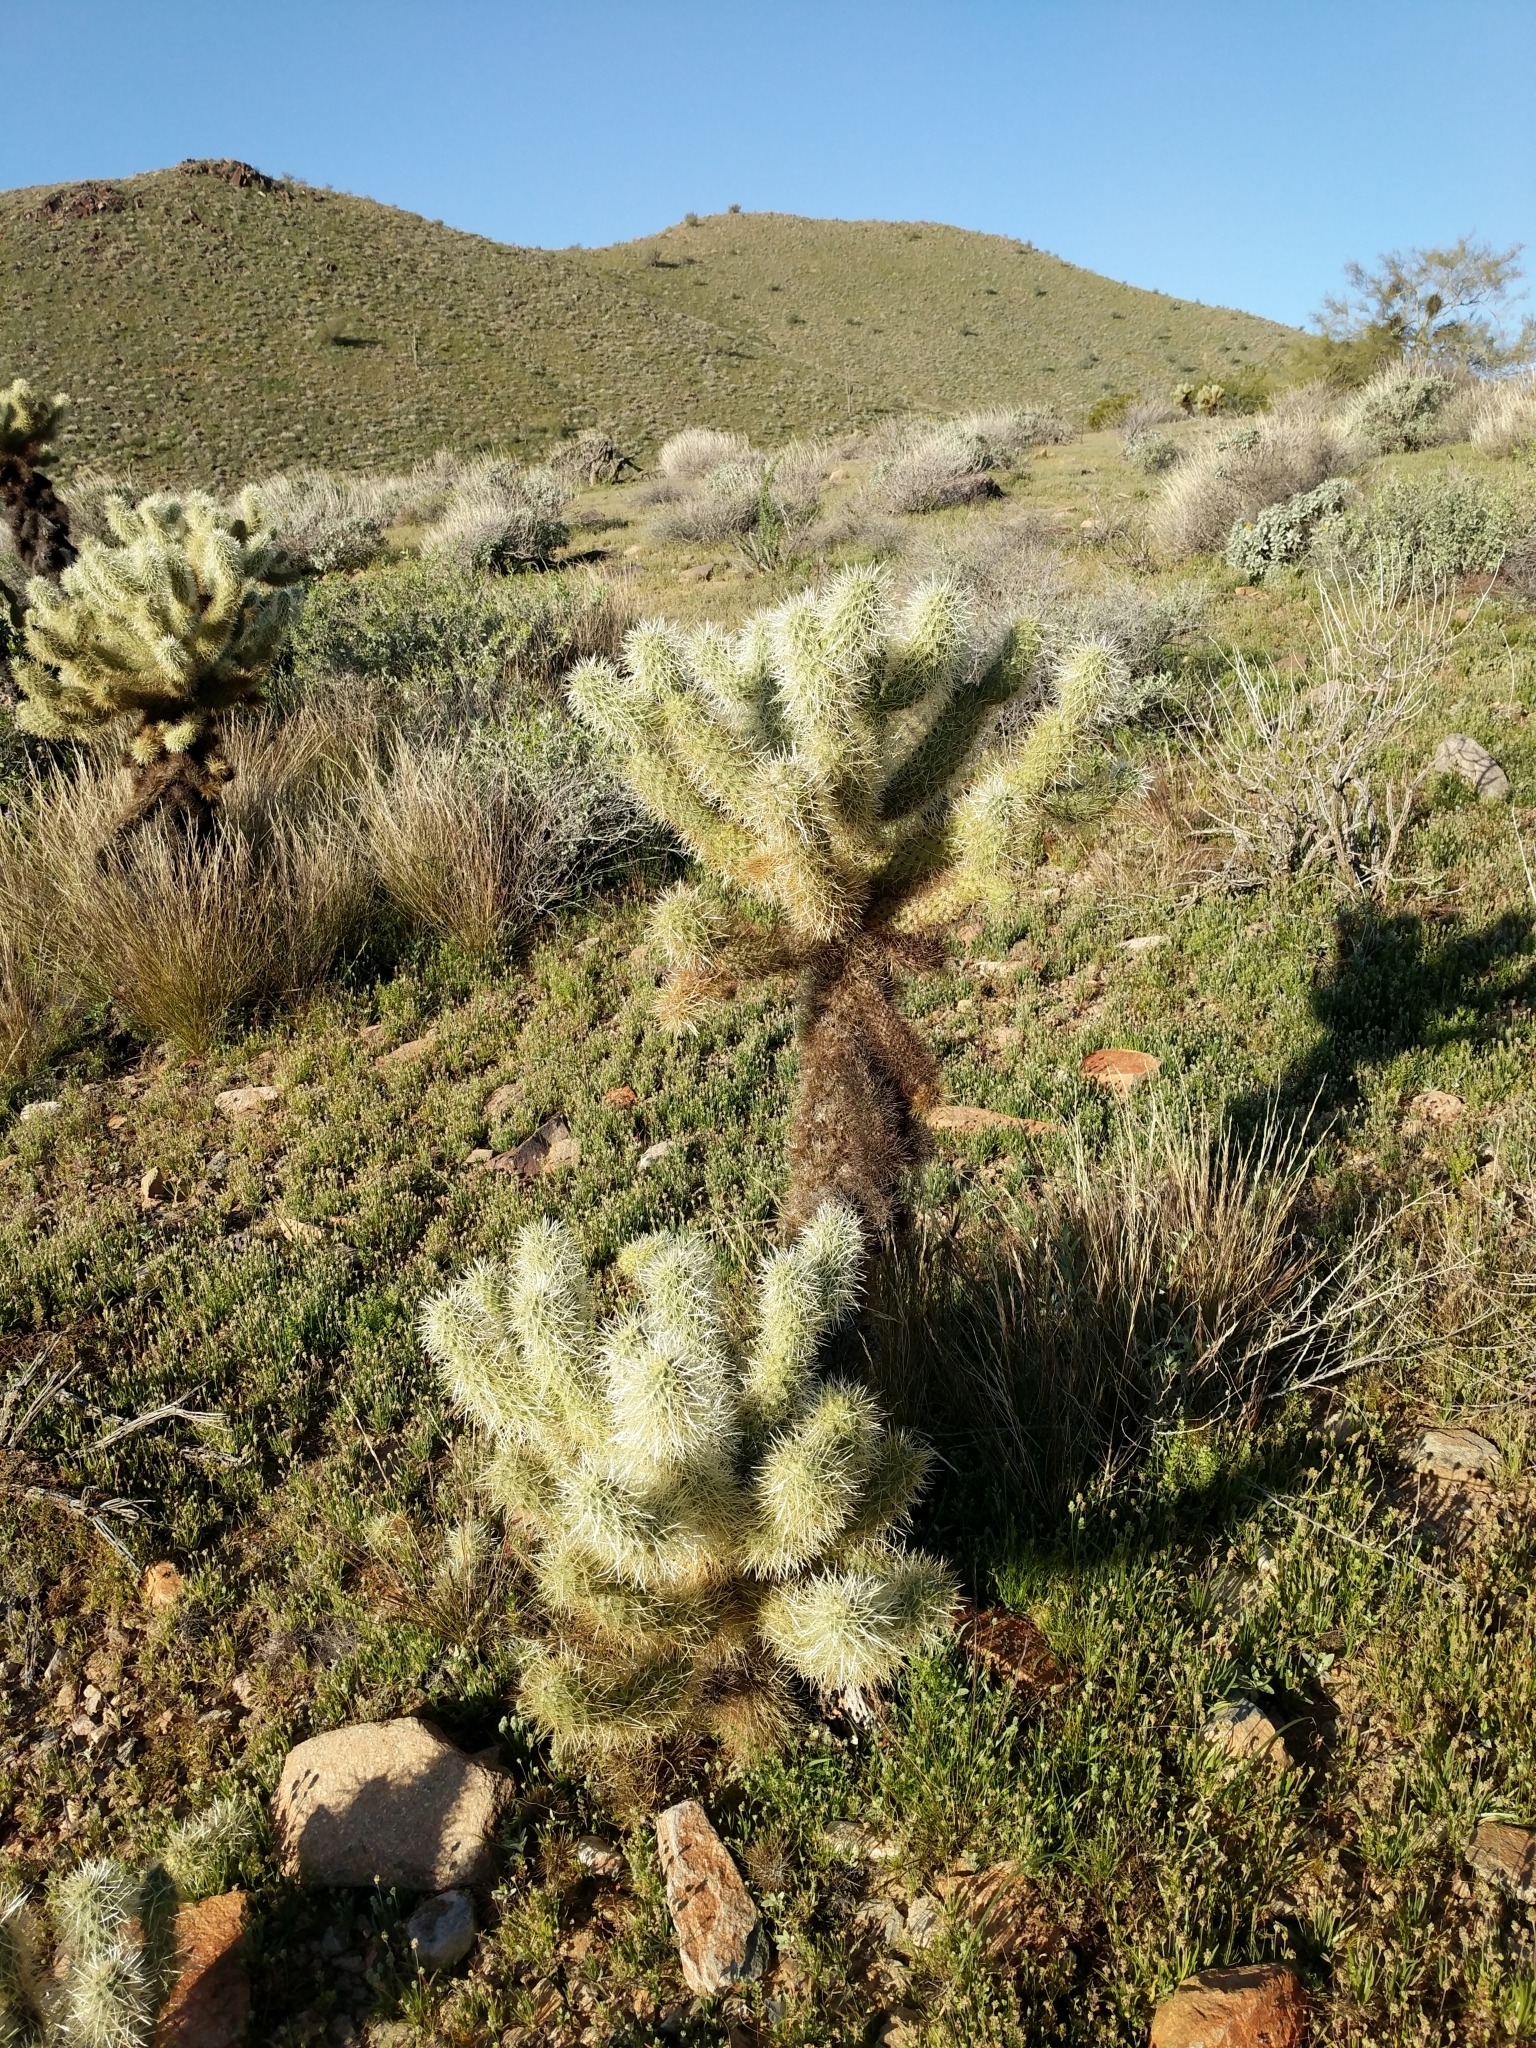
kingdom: Plantae
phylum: Tracheophyta
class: Magnoliopsida
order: Caryophyllales
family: Cactaceae
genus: Cylindropuntia
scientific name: Cylindropuntia fosbergii
